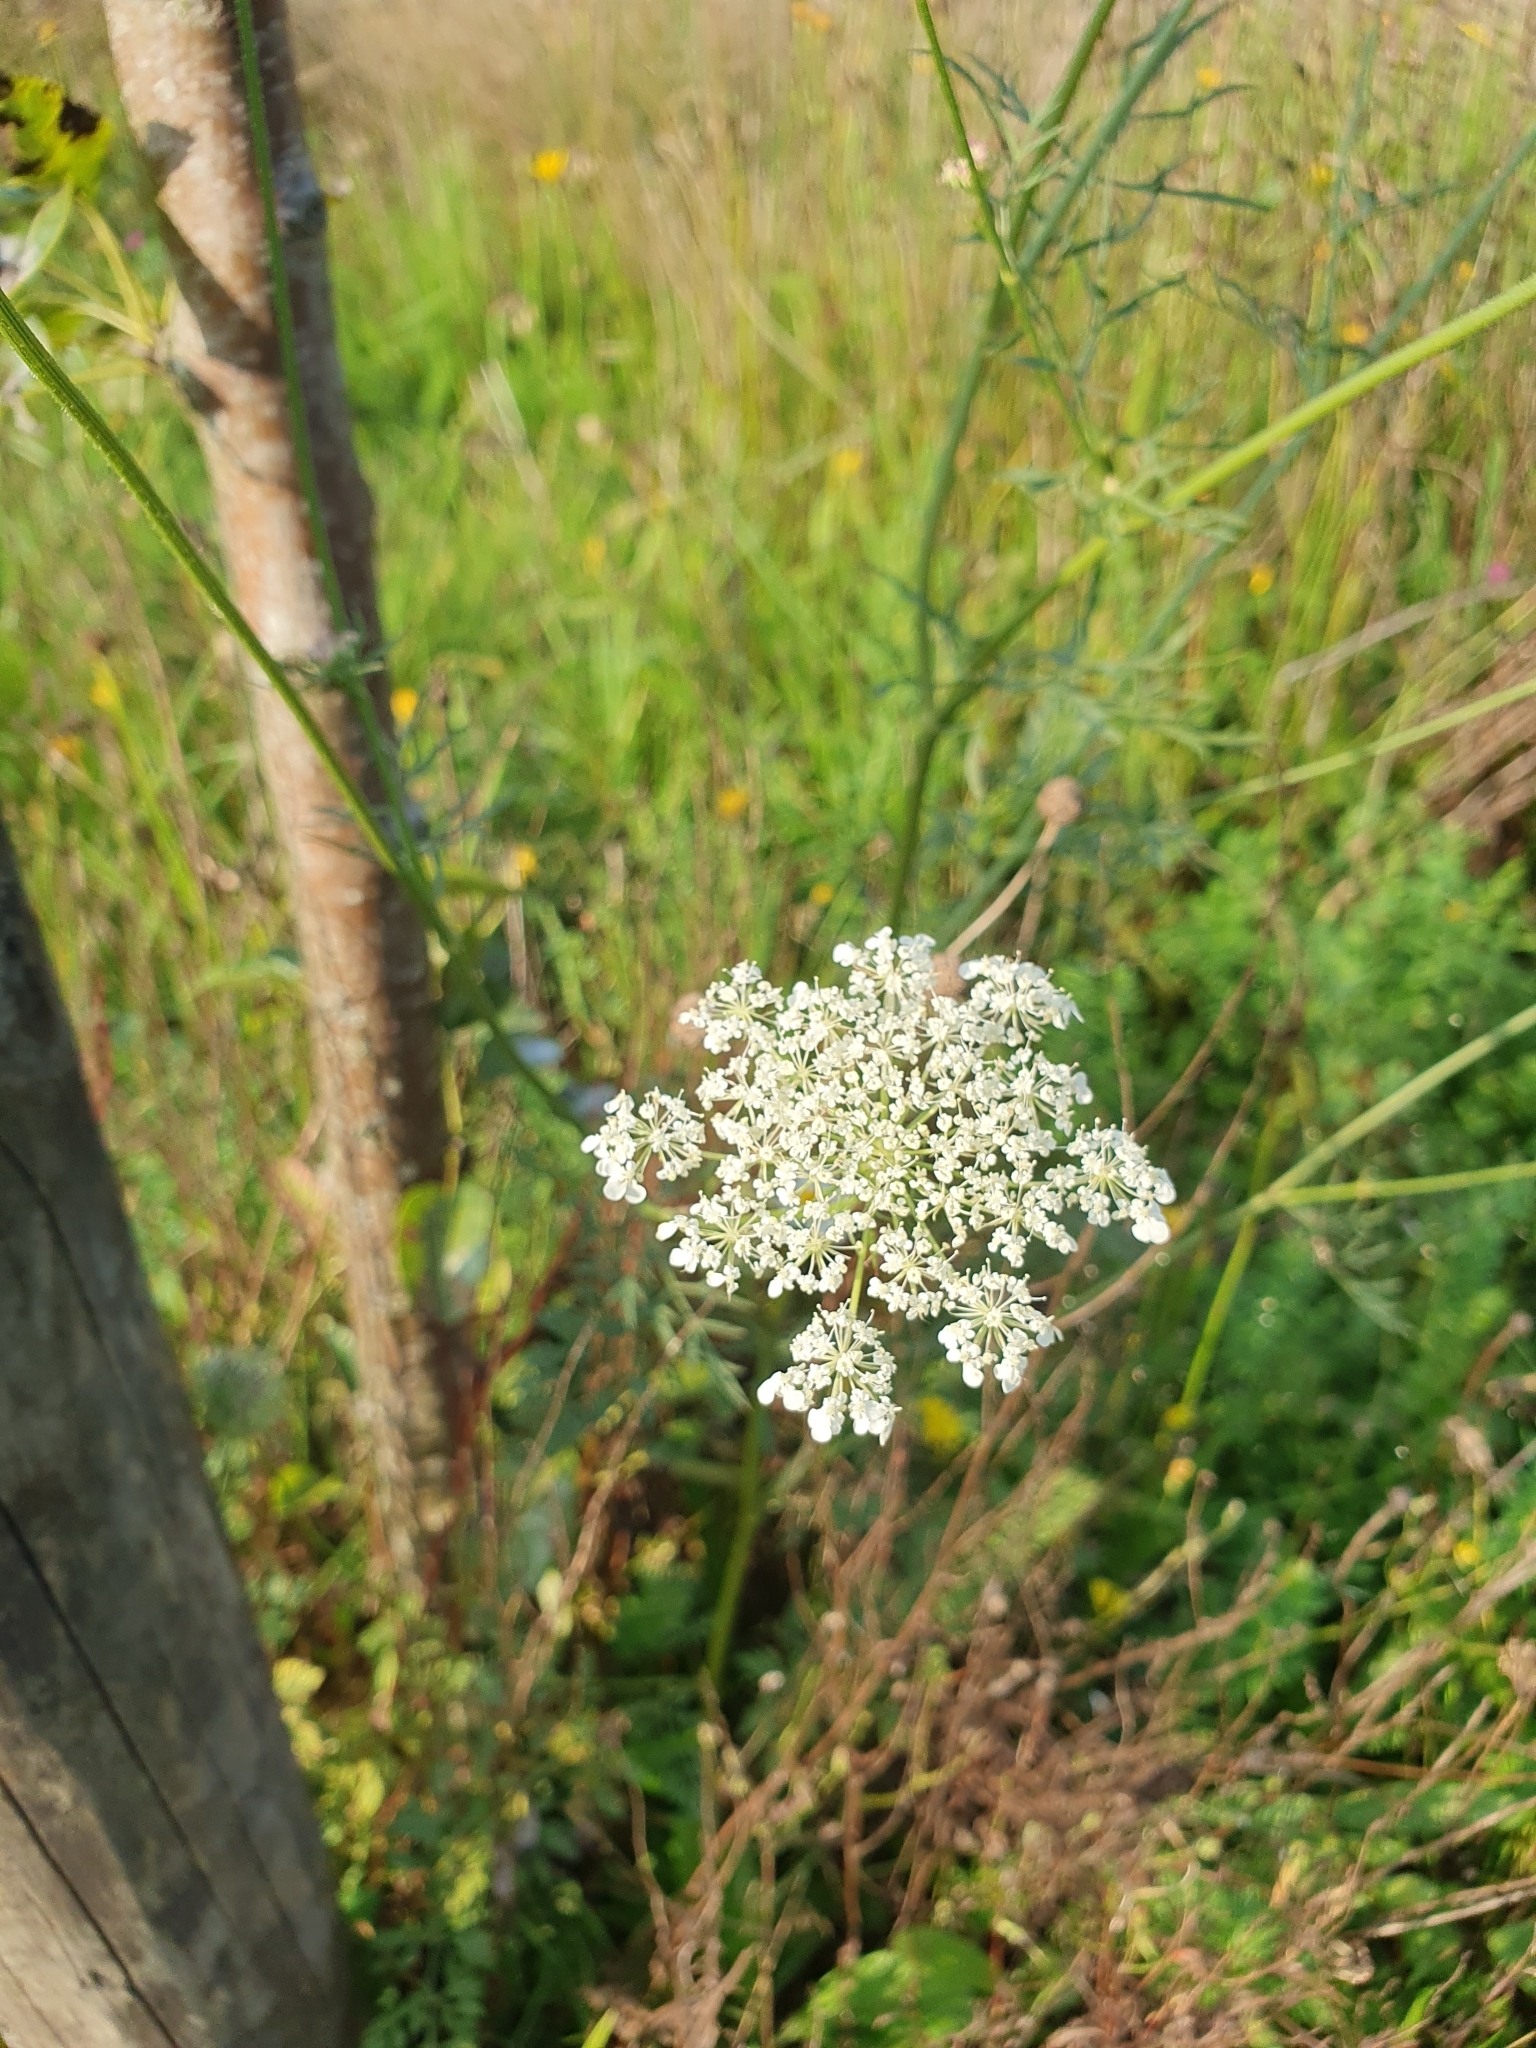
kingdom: Plantae
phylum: Tracheophyta
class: Magnoliopsida
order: Apiales
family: Apiaceae
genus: Daucus
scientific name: Daucus carota
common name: Wild carrot
